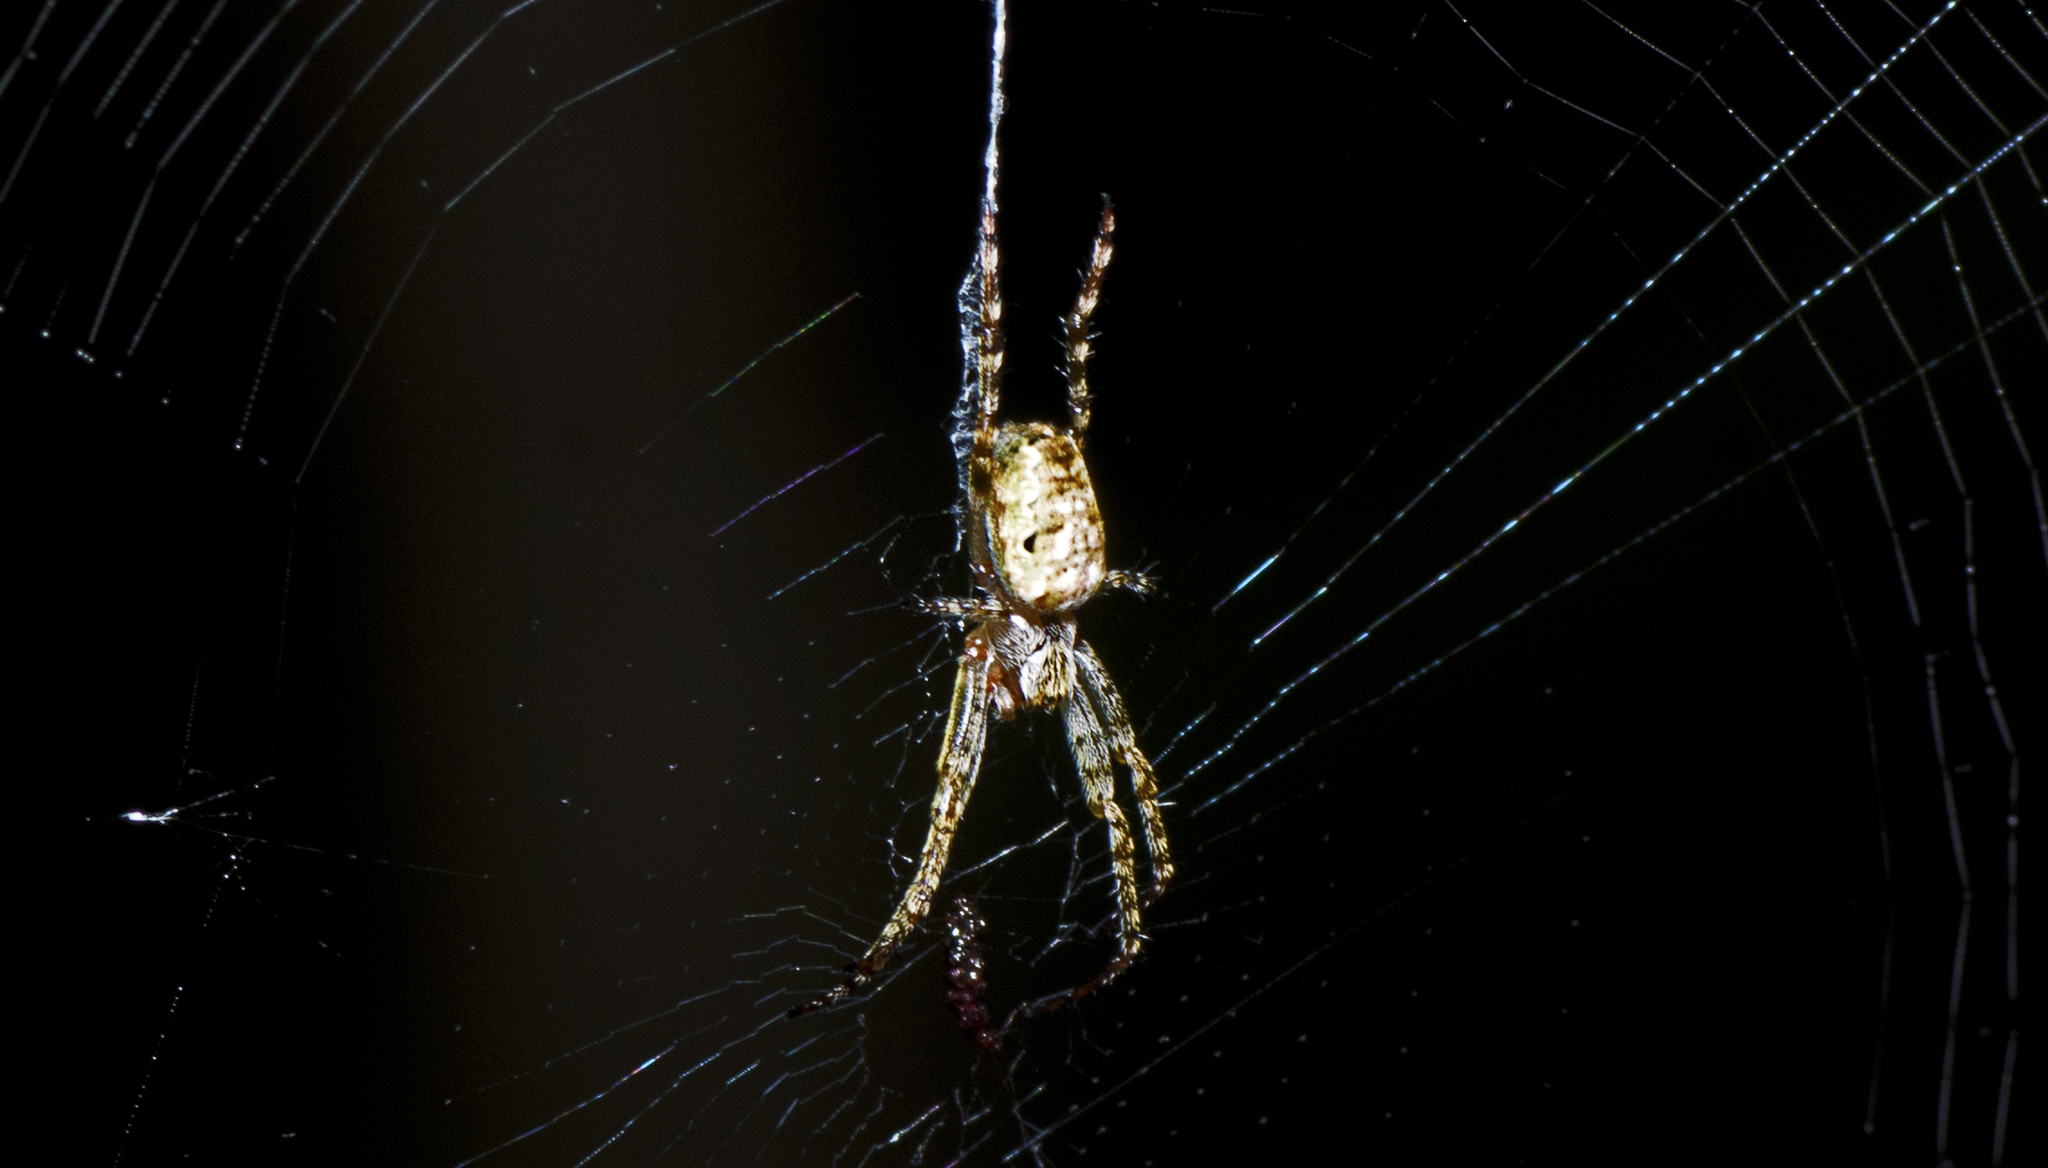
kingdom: Animalia
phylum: Arthropoda
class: Arachnida
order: Araneae
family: Araneidae
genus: Plebs
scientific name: Plebs eburnus
